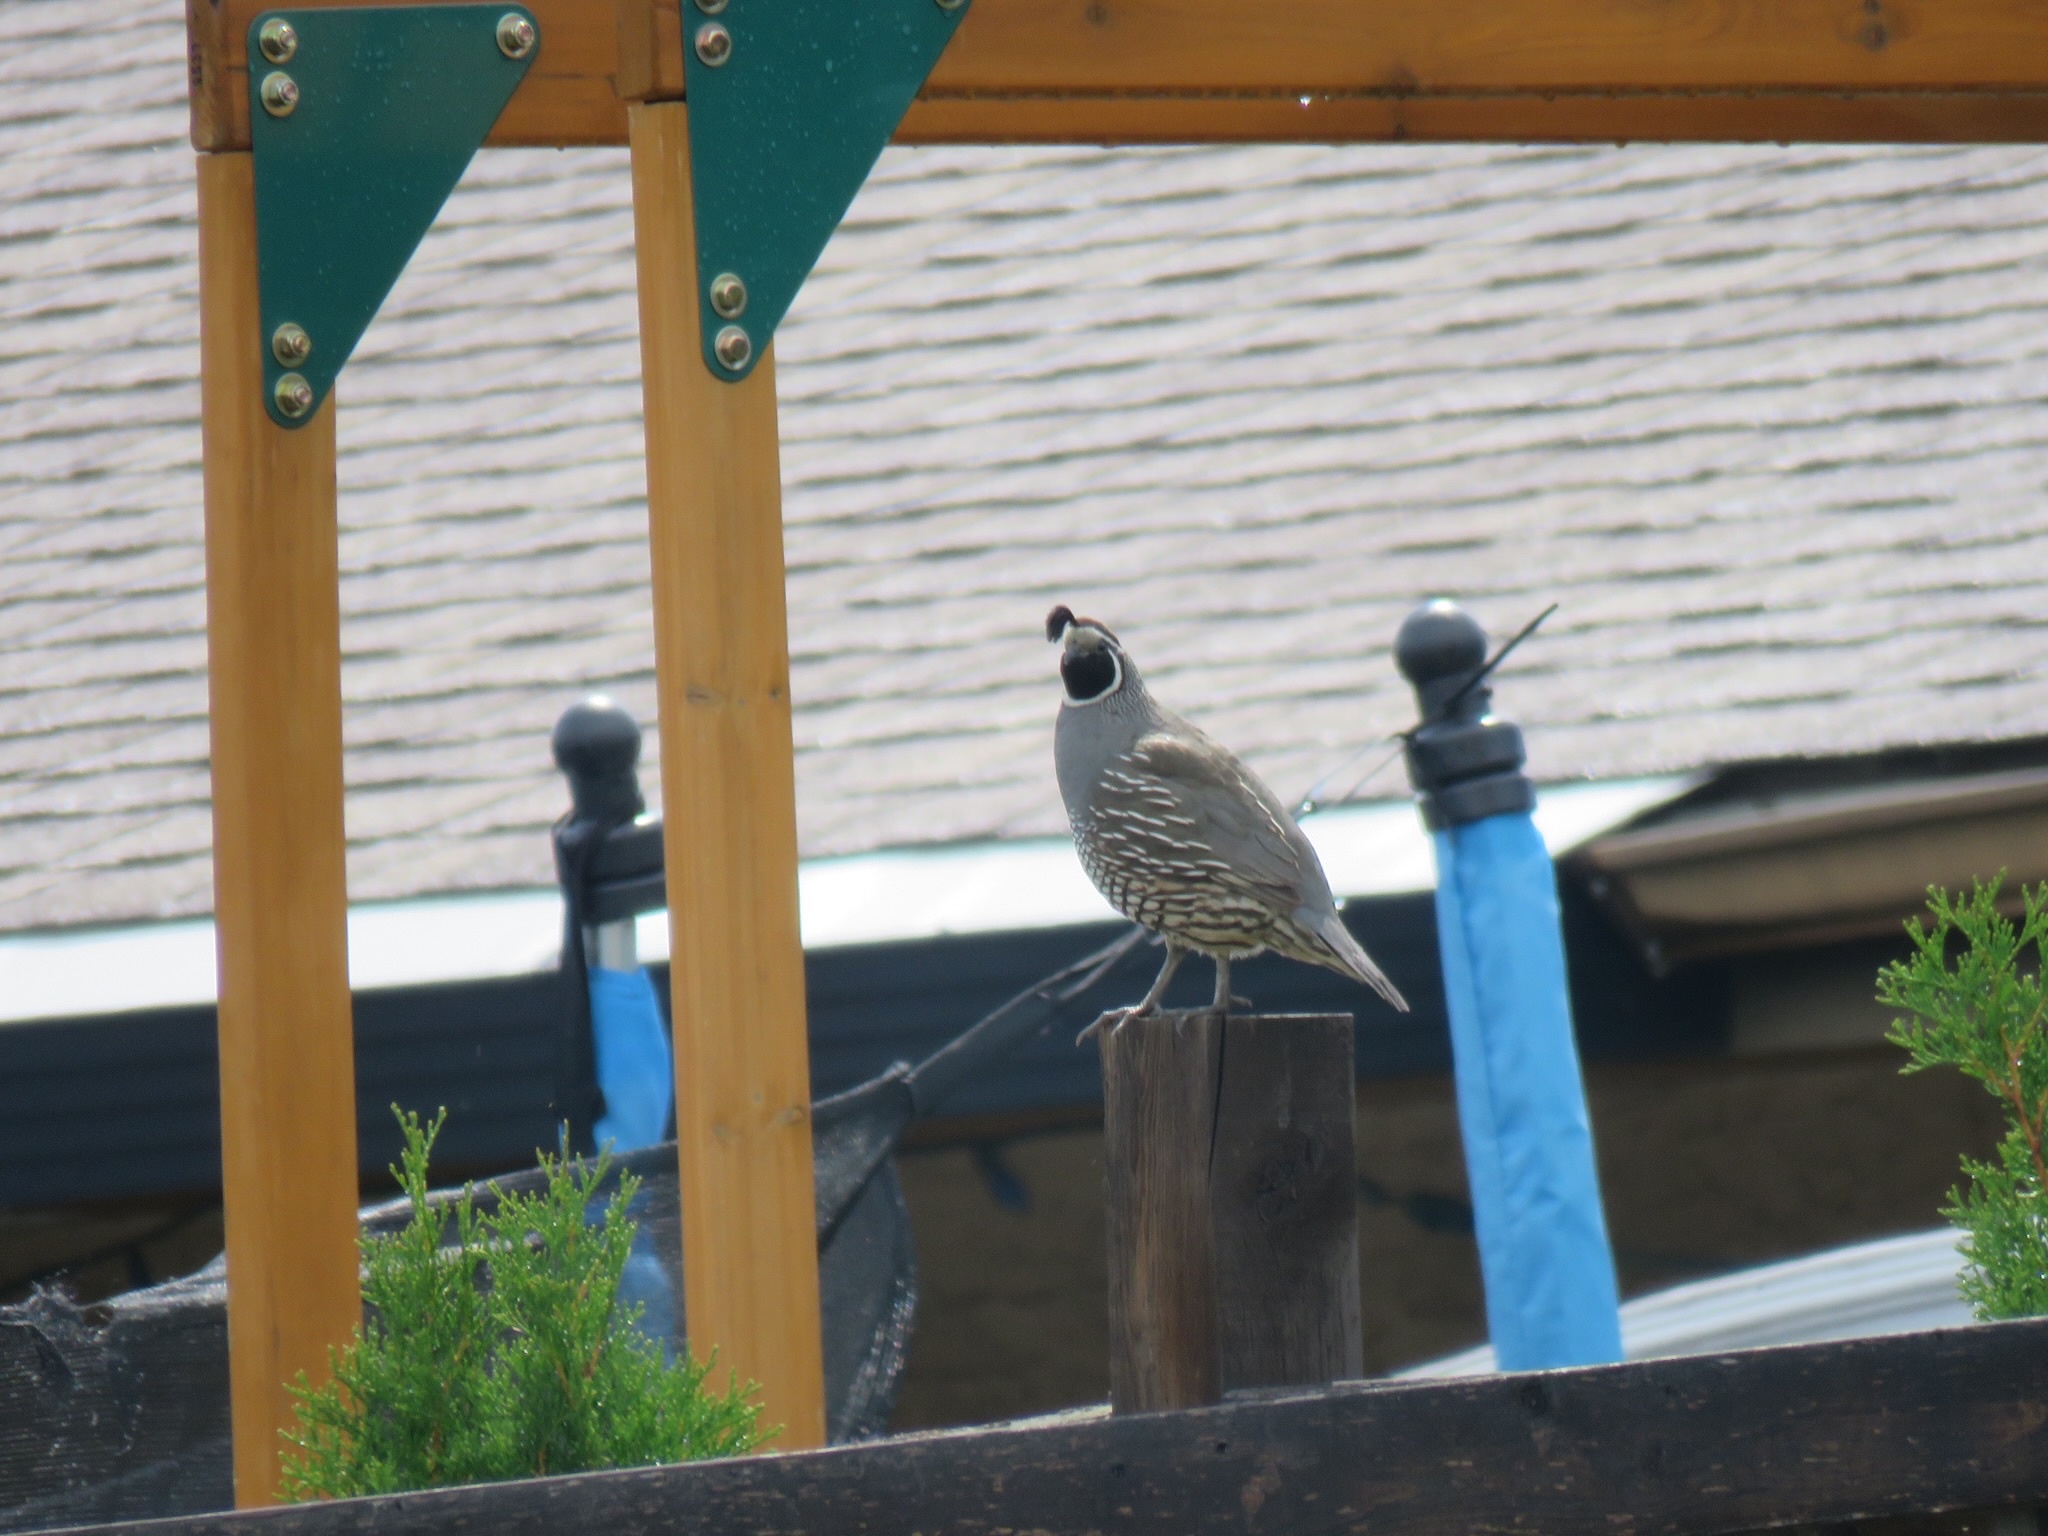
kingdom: Animalia
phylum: Chordata
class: Aves
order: Galliformes
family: Odontophoridae
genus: Callipepla
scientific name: Callipepla californica
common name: California quail
